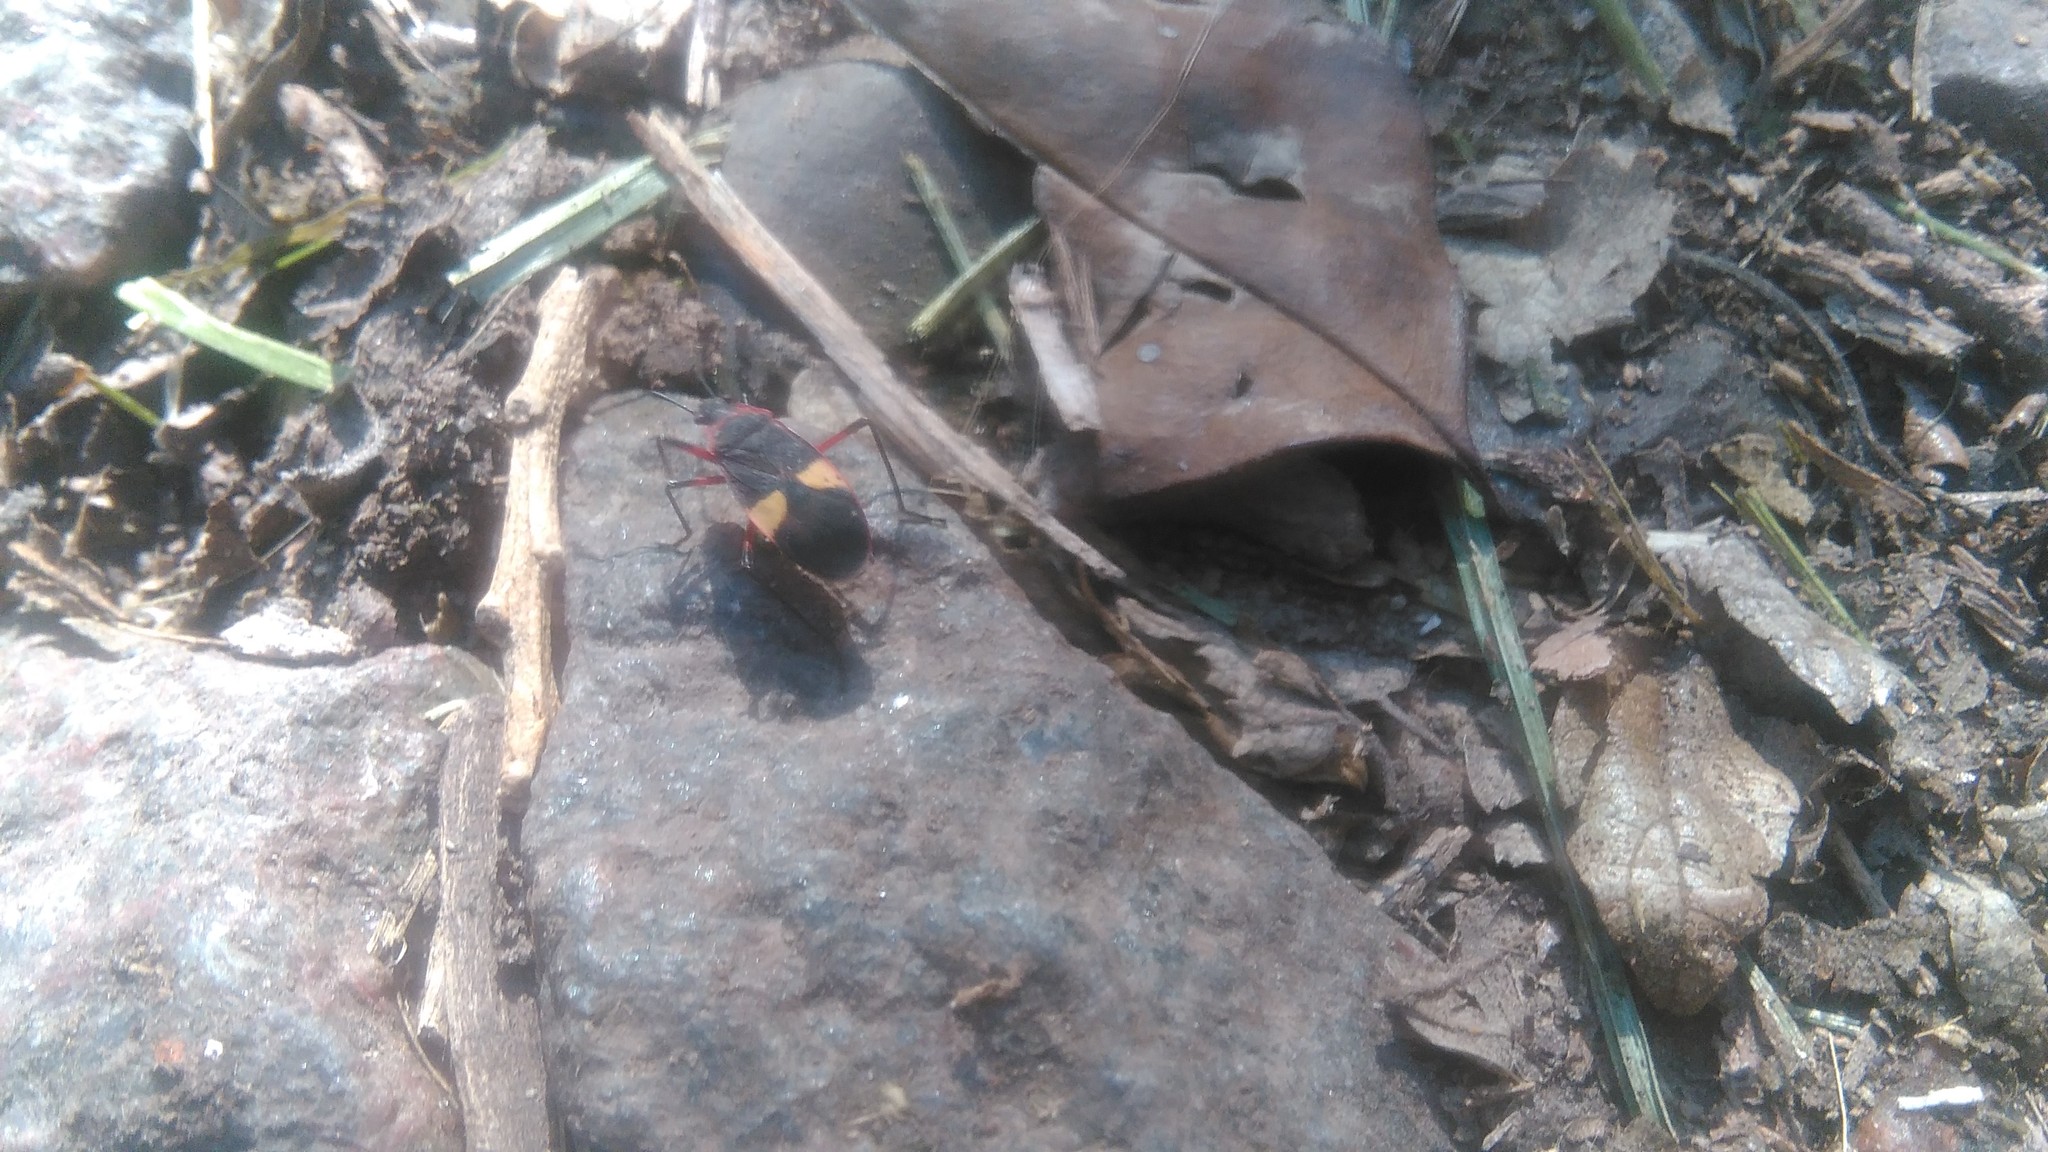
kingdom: Animalia
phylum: Arthropoda
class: Insecta
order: Hemiptera
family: Pyrrhocoridae
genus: Dysdercus
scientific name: Dysdercus albofasciatus
